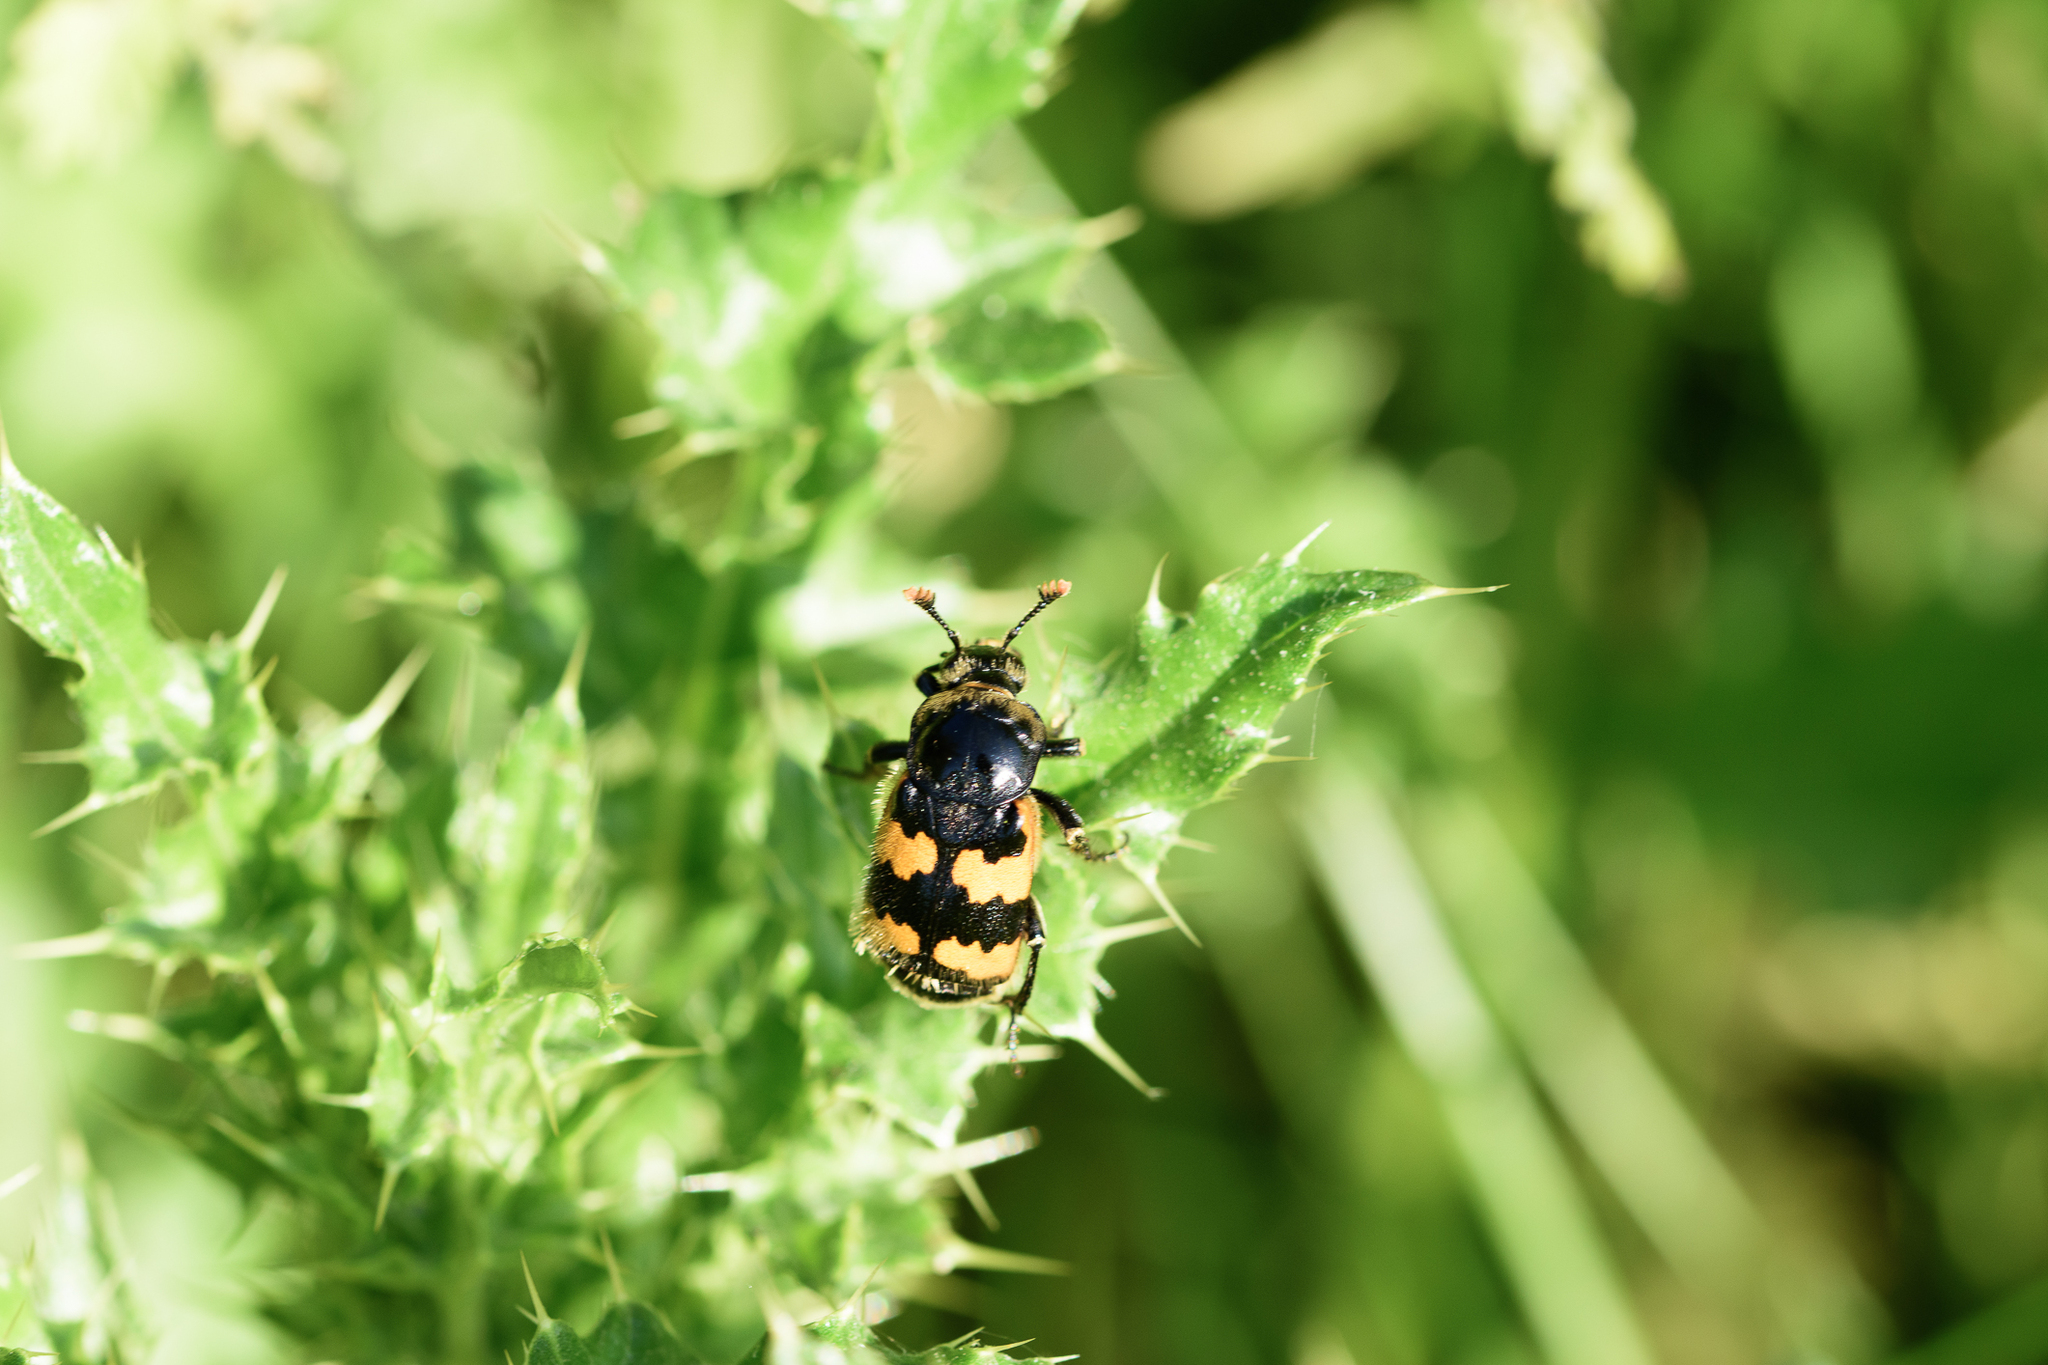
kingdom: Animalia
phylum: Arthropoda
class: Insecta
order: Coleoptera
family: Staphylinidae
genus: Nicrophorus
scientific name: Nicrophorus vespillo
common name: Common burying beetle
